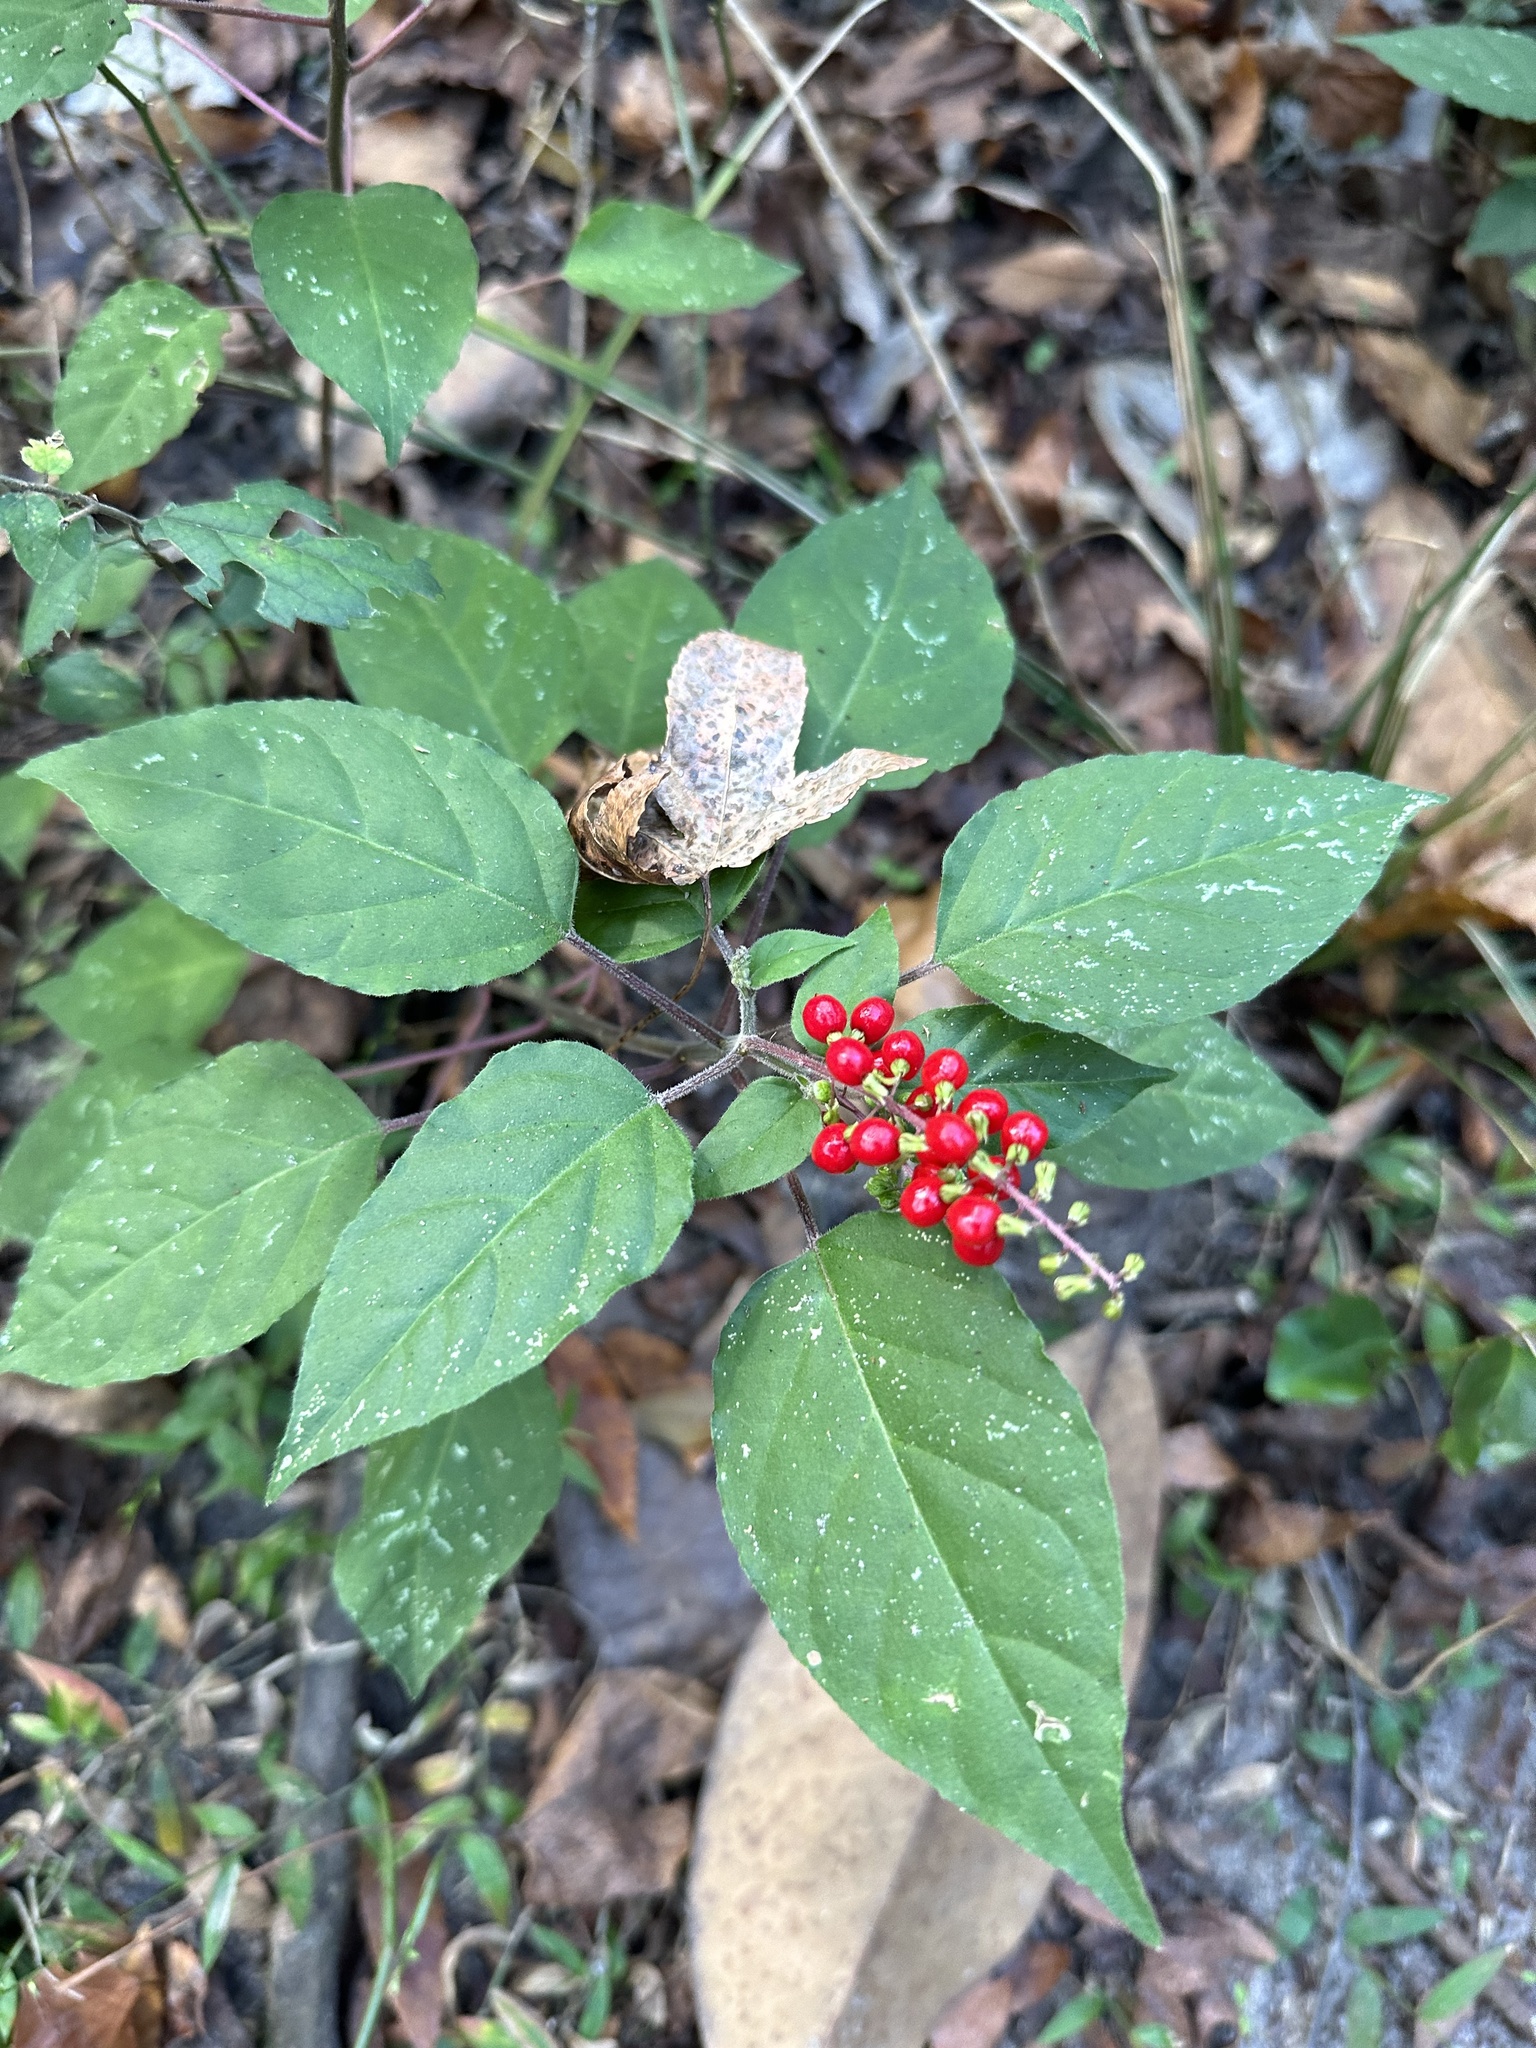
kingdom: Plantae
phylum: Tracheophyta
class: Magnoliopsida
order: Caryophyllales
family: Phytolaccaceae
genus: Rivina
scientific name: Rivina humilis
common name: Rougeplant
